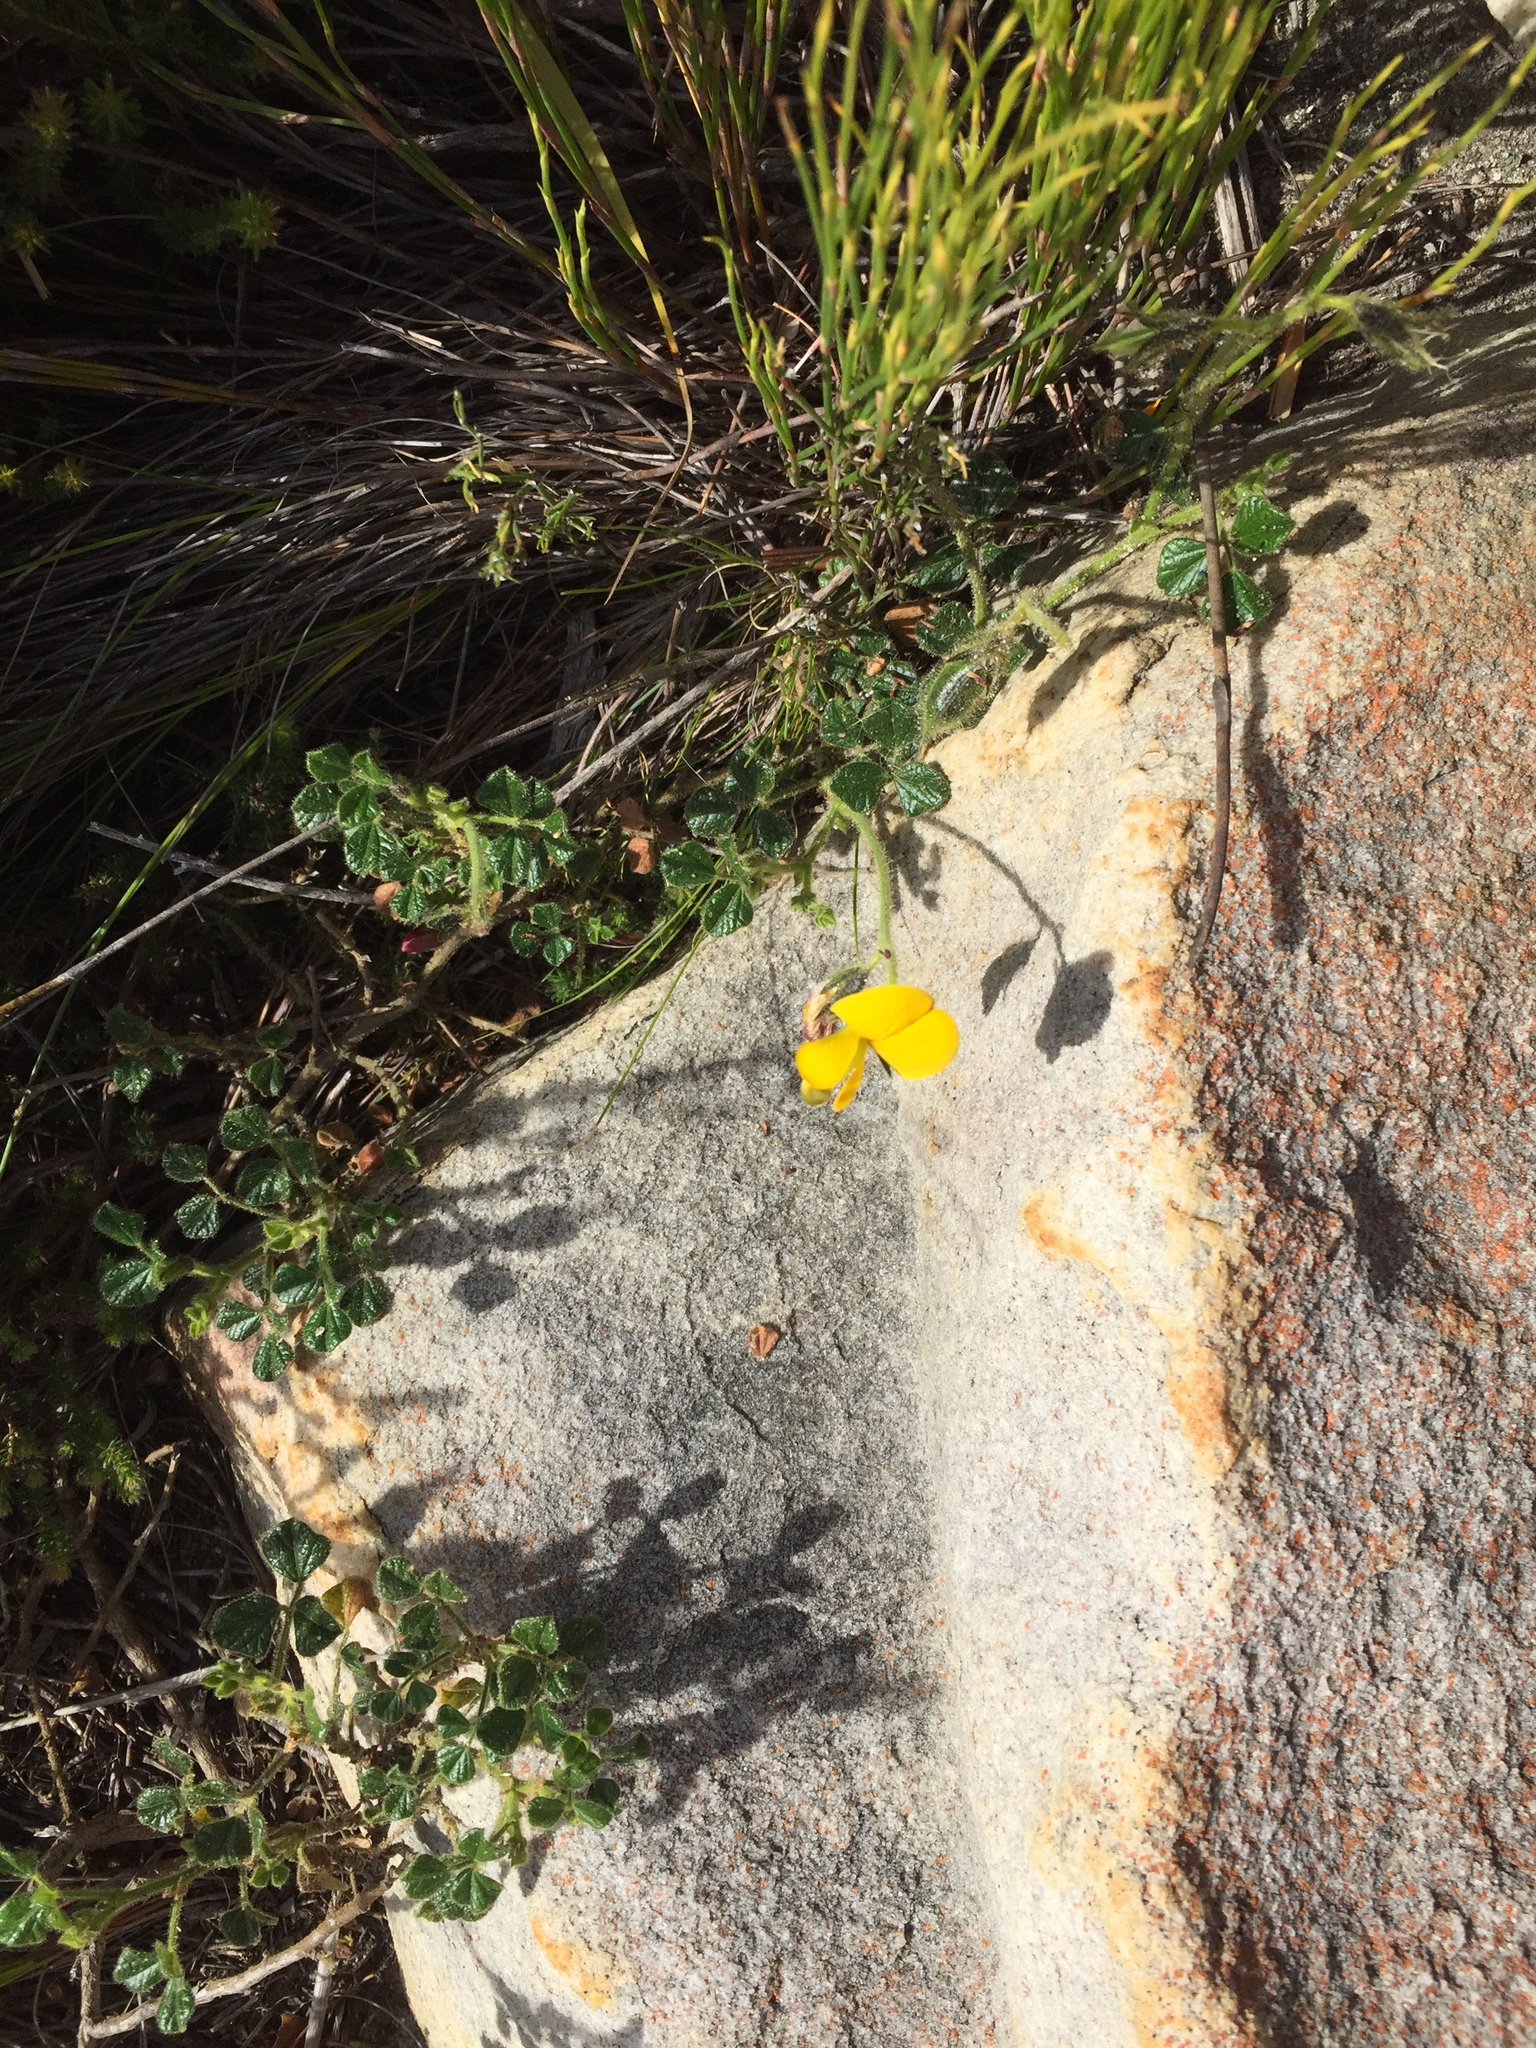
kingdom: Plantae
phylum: Tracheophyta
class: Magnoliopsida
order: Fabales
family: Fabaceae
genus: Bolusafra
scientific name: Bolusafra bituminosa
